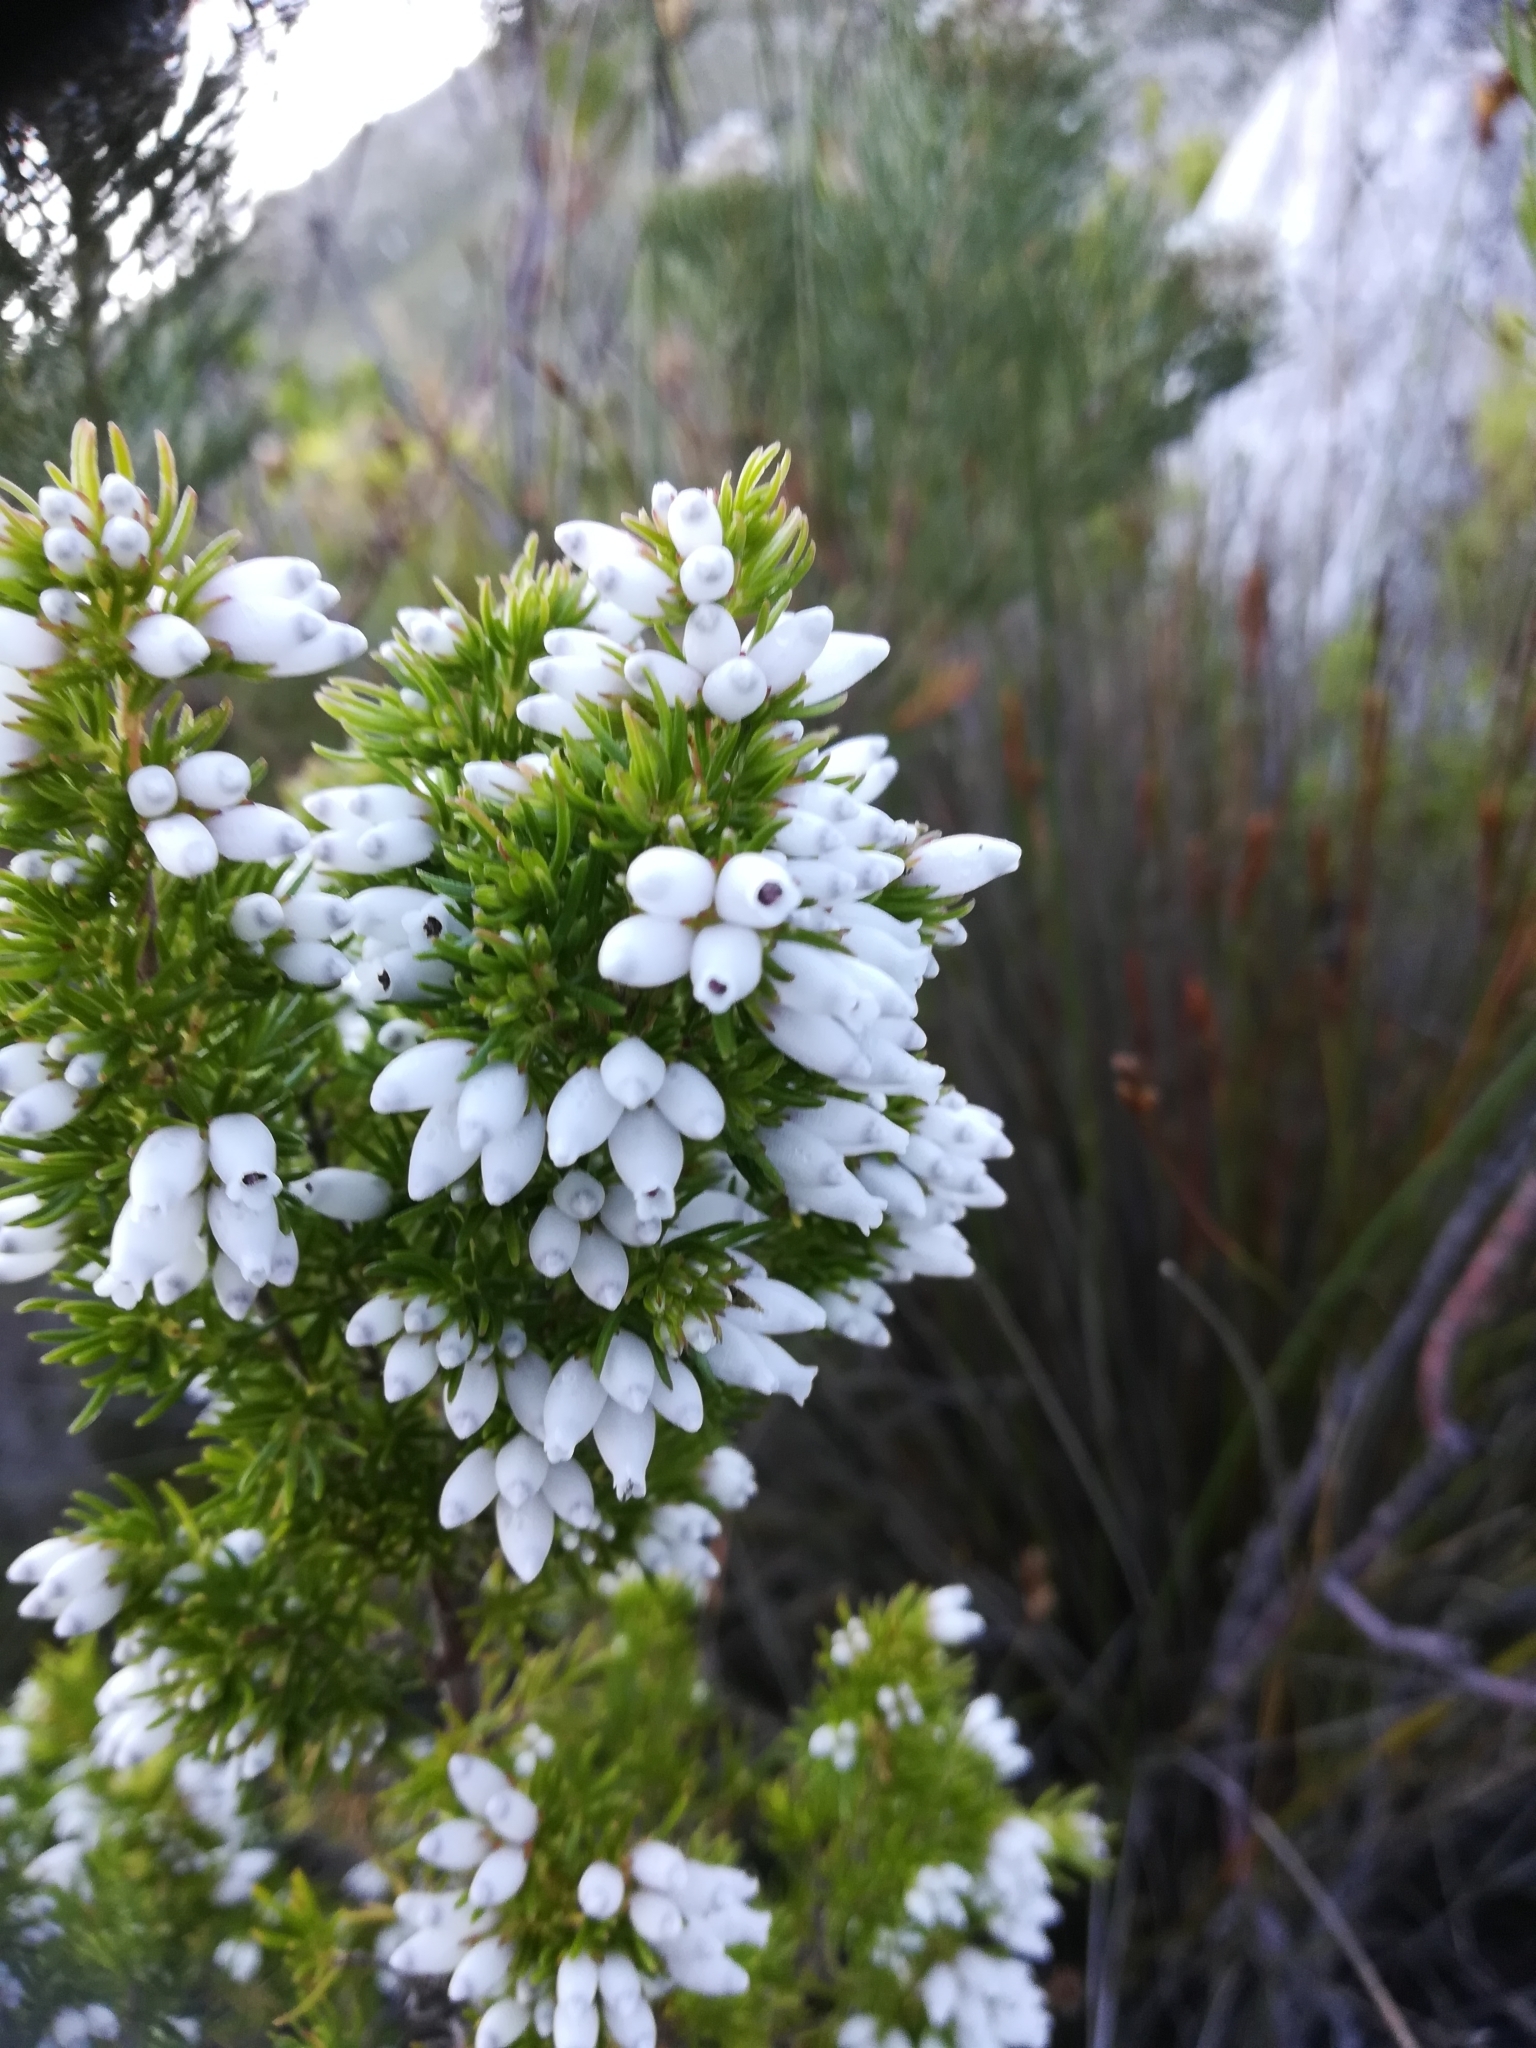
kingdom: Plantae
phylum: Tracheophyta
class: Magnoliopsida
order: Ericales
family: Ericaceae
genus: Erica
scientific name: Erica sitiens
